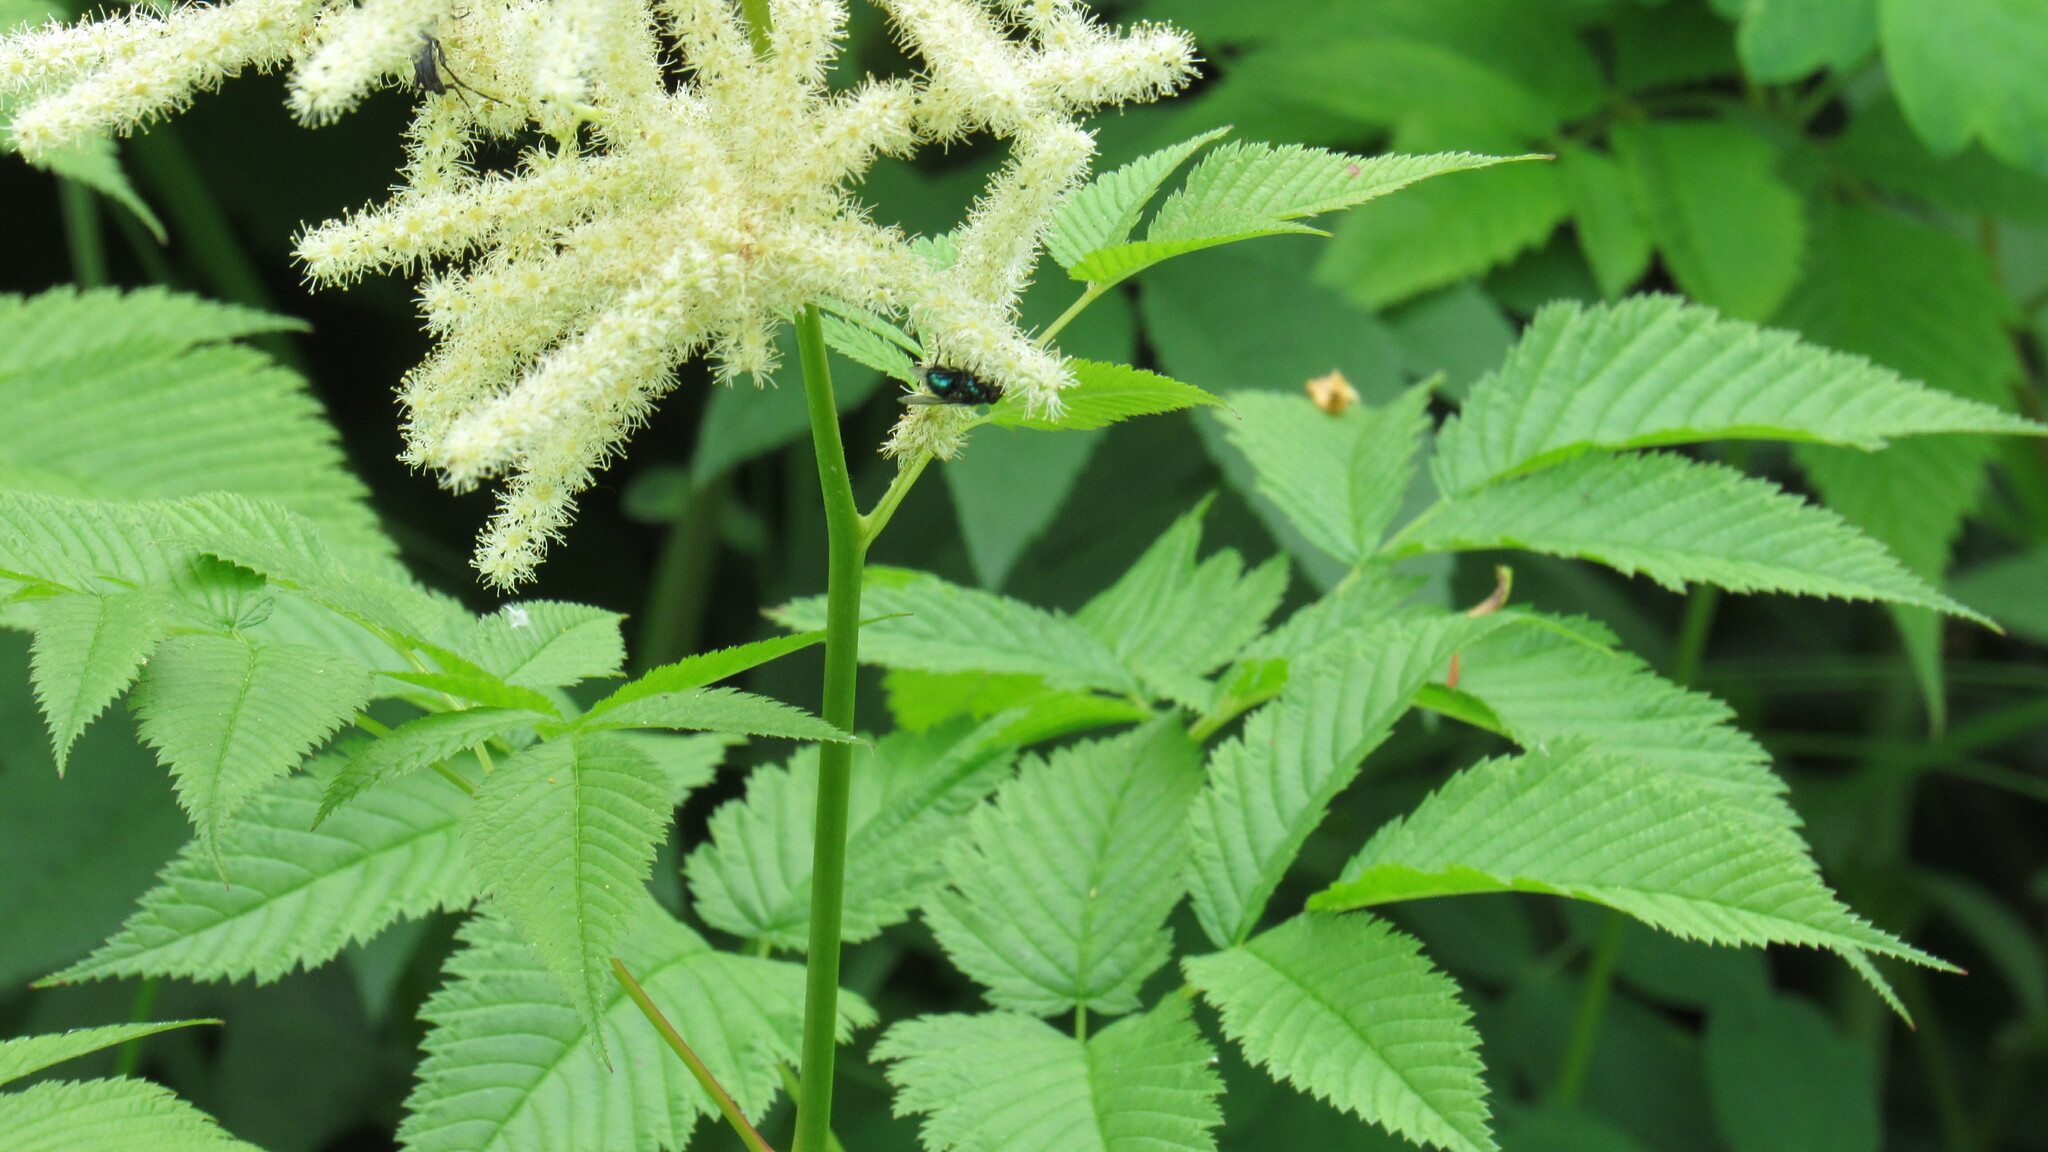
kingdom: Plantae
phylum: Tracheophyta
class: Magnoliopsida
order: Rosales
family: Rosaceae
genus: Aruncus
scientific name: Aruncus dioicus
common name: Buck's-beard
